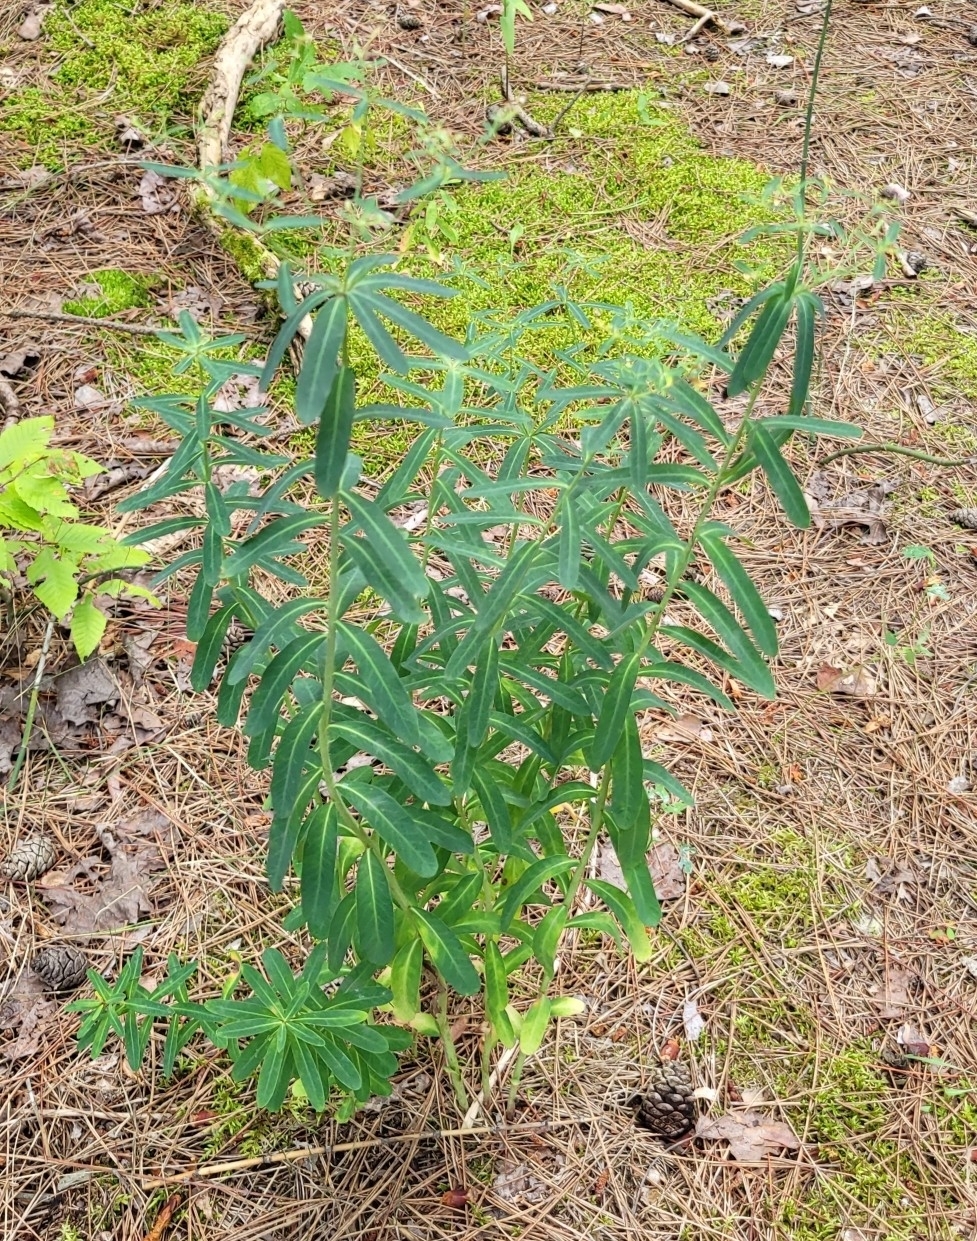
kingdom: Plantae
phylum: Tracheophyta
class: Magnoliopsida
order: Malpighiales
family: Euphorbiaceae
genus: Euphorbia
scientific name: Euphorbia corollata
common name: Flowering spurge
